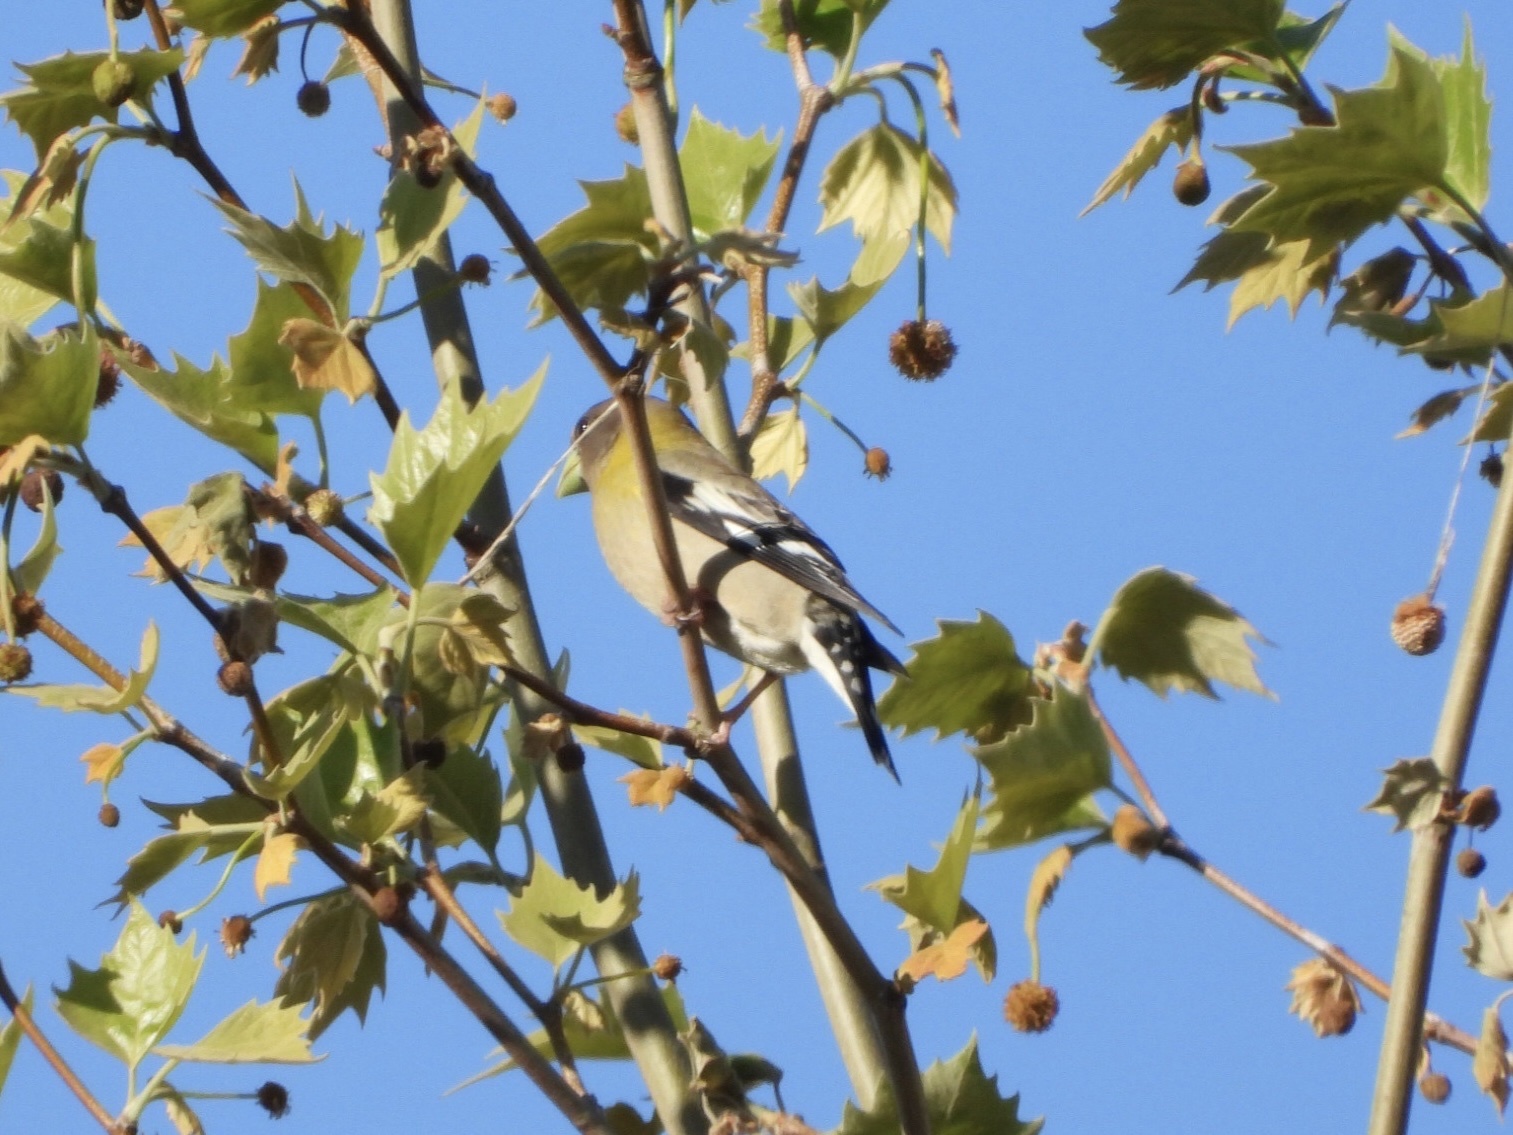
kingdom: Animalia
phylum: Chordata
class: Aves
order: Passeriformes
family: Fringillidae
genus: Hesperiphona
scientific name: Hesperiphona vespertina
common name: Evening grosbeak
